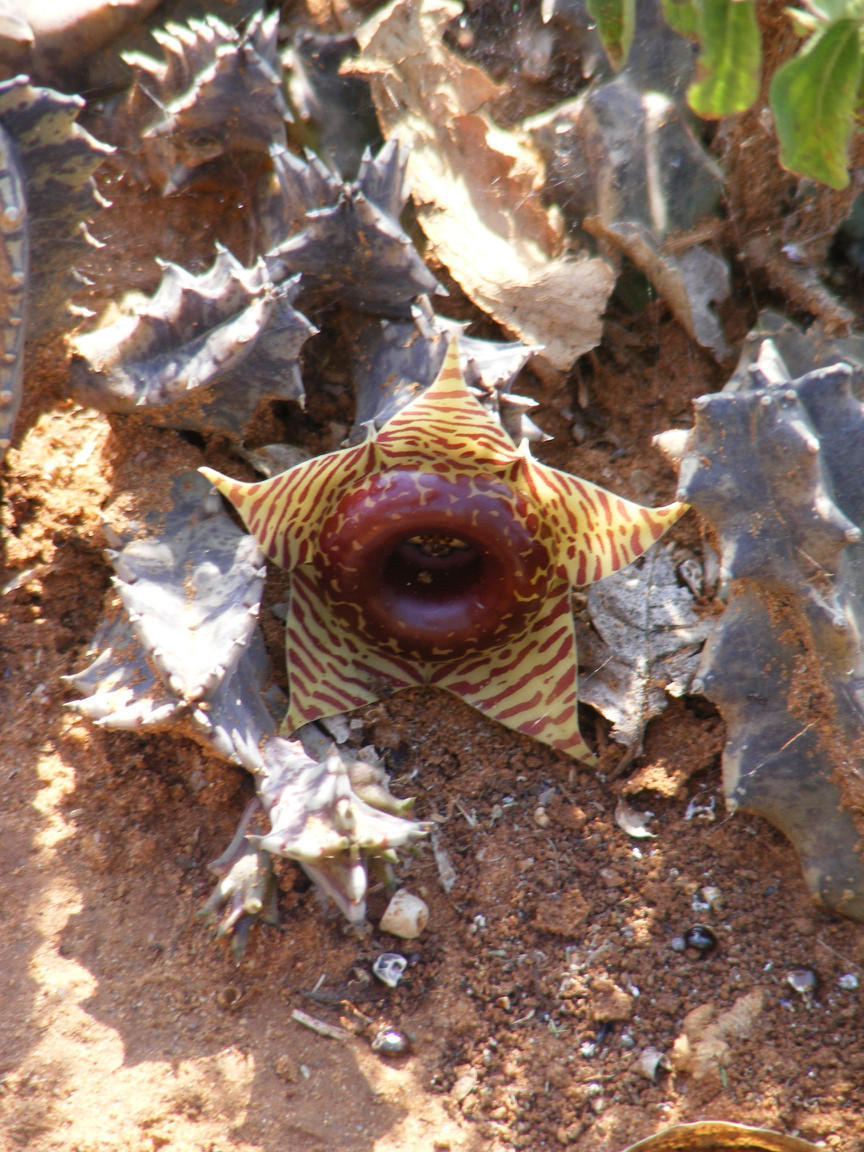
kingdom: Plantae
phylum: Tracheophyta
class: Magnoliopsida
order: Gentianales
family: Apocynaceae
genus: Ceropegia
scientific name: Ceropegia zebrina
